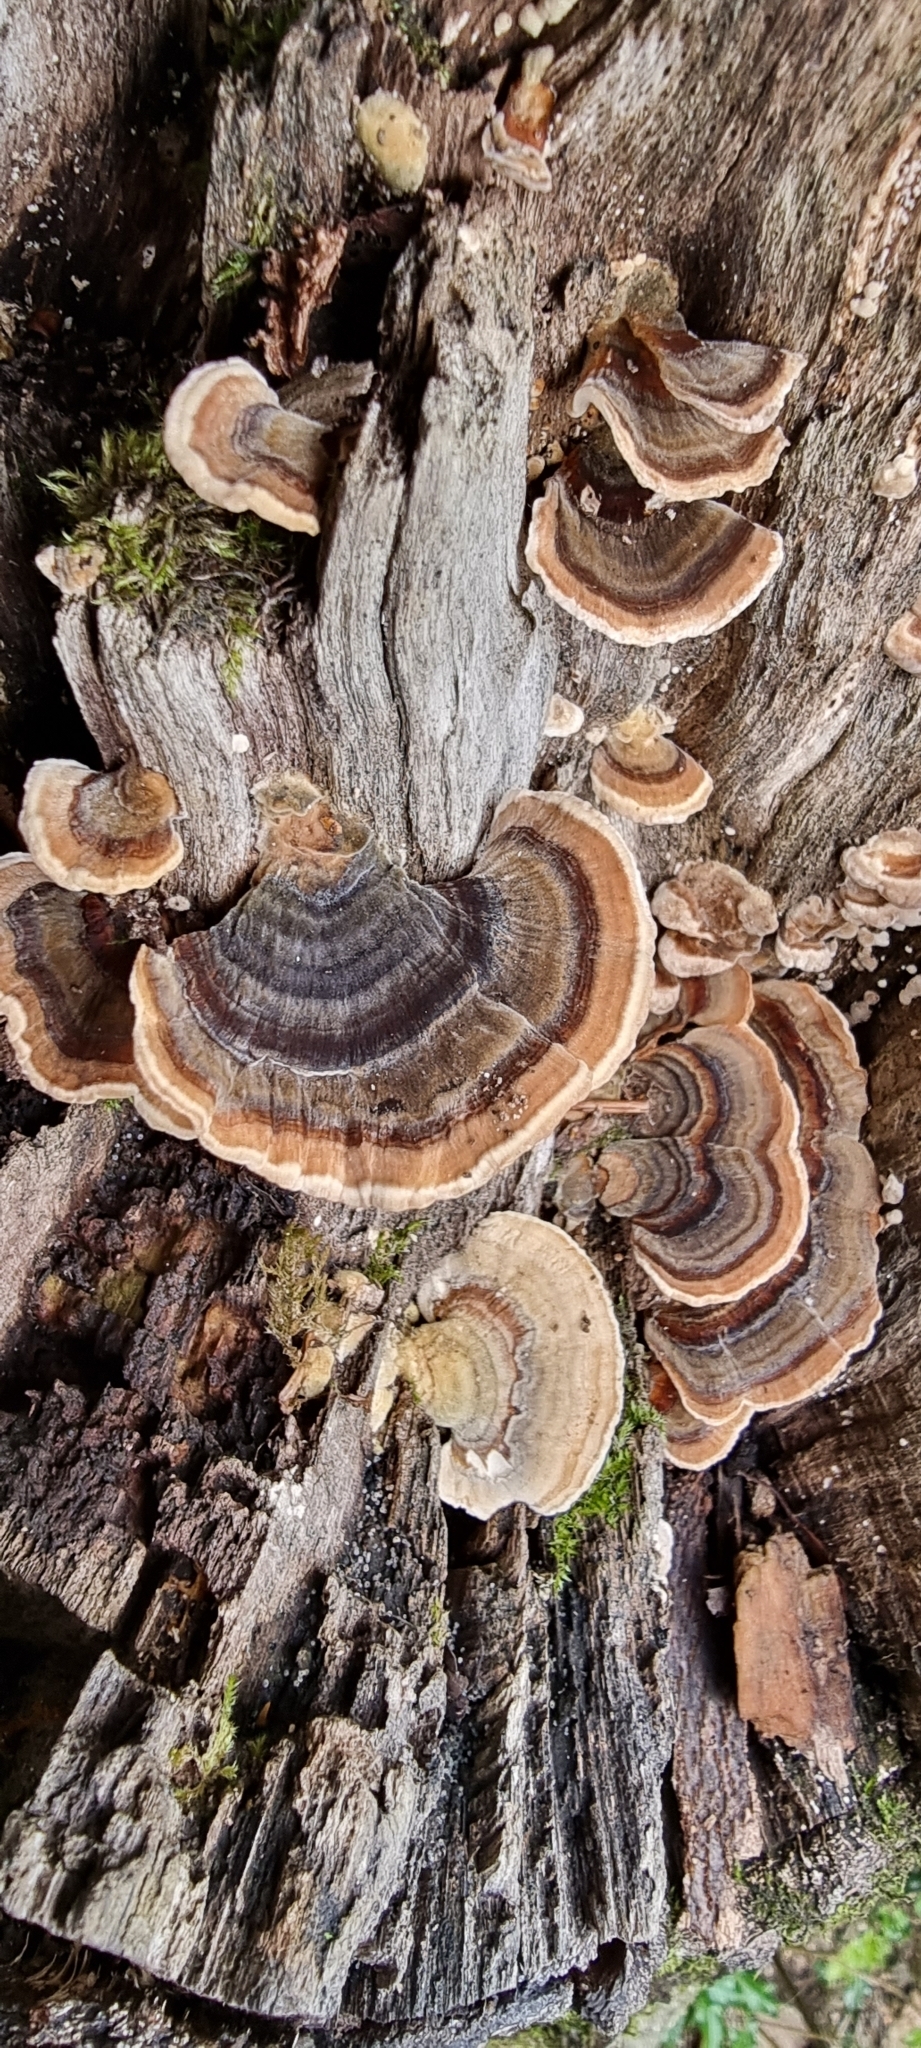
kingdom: Fungi
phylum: Basidiomycota
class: Agaricomycetes
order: Polyporales
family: Polyporaceae
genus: Trametes
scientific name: Trametes versicolor
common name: Turkeytail
